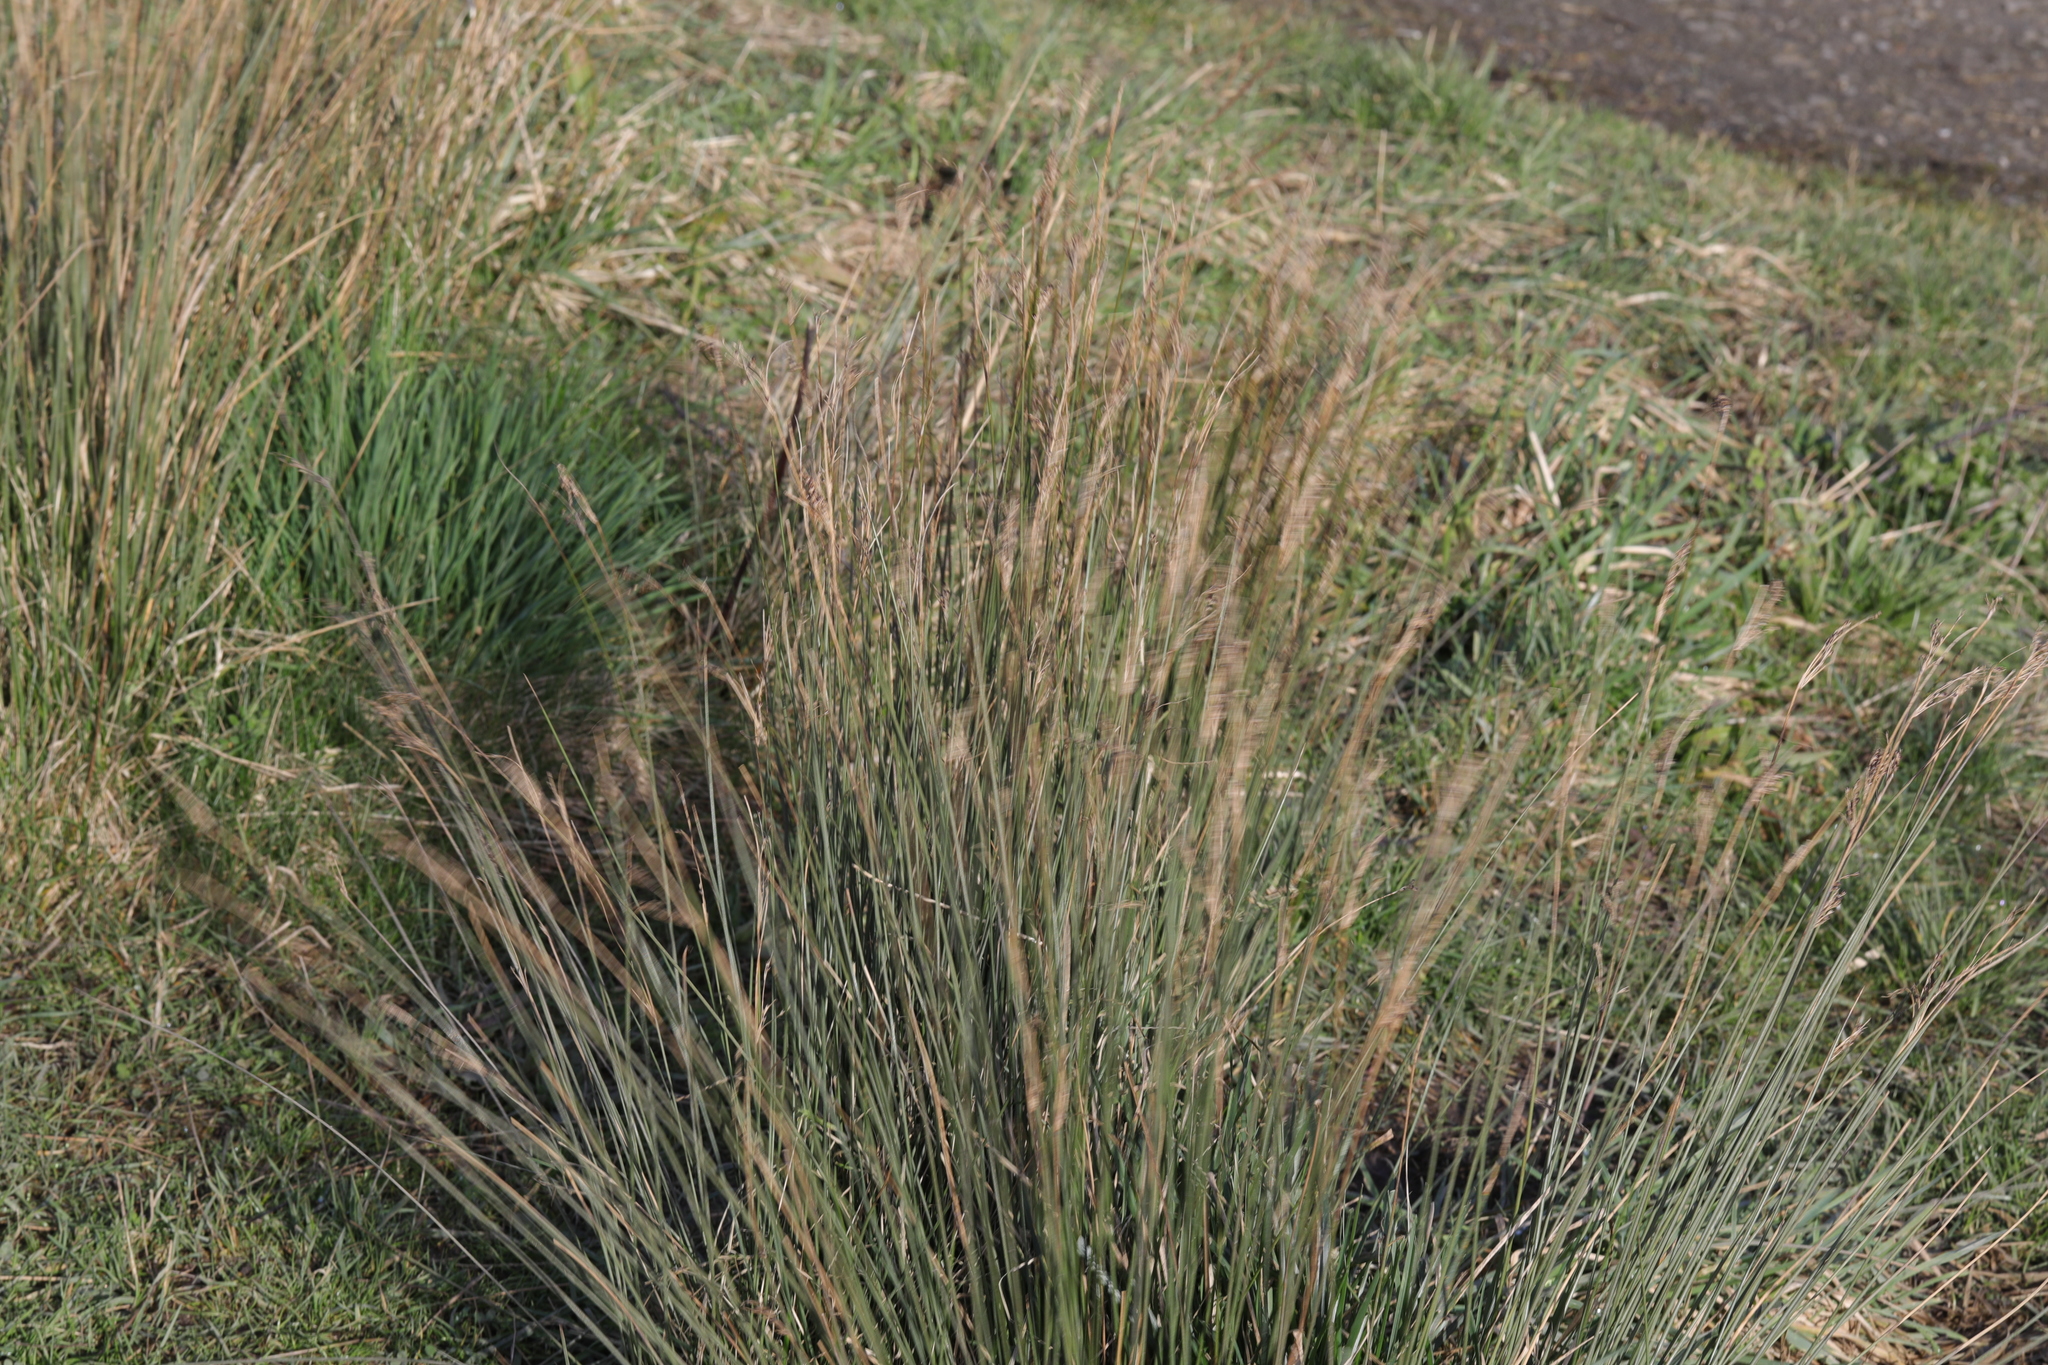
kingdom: Plantae
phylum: Tracheophyta
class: Liliopsida
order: Poales
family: Juncaceae
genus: Juncus
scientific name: Juncus inflexus
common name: Hard rush
